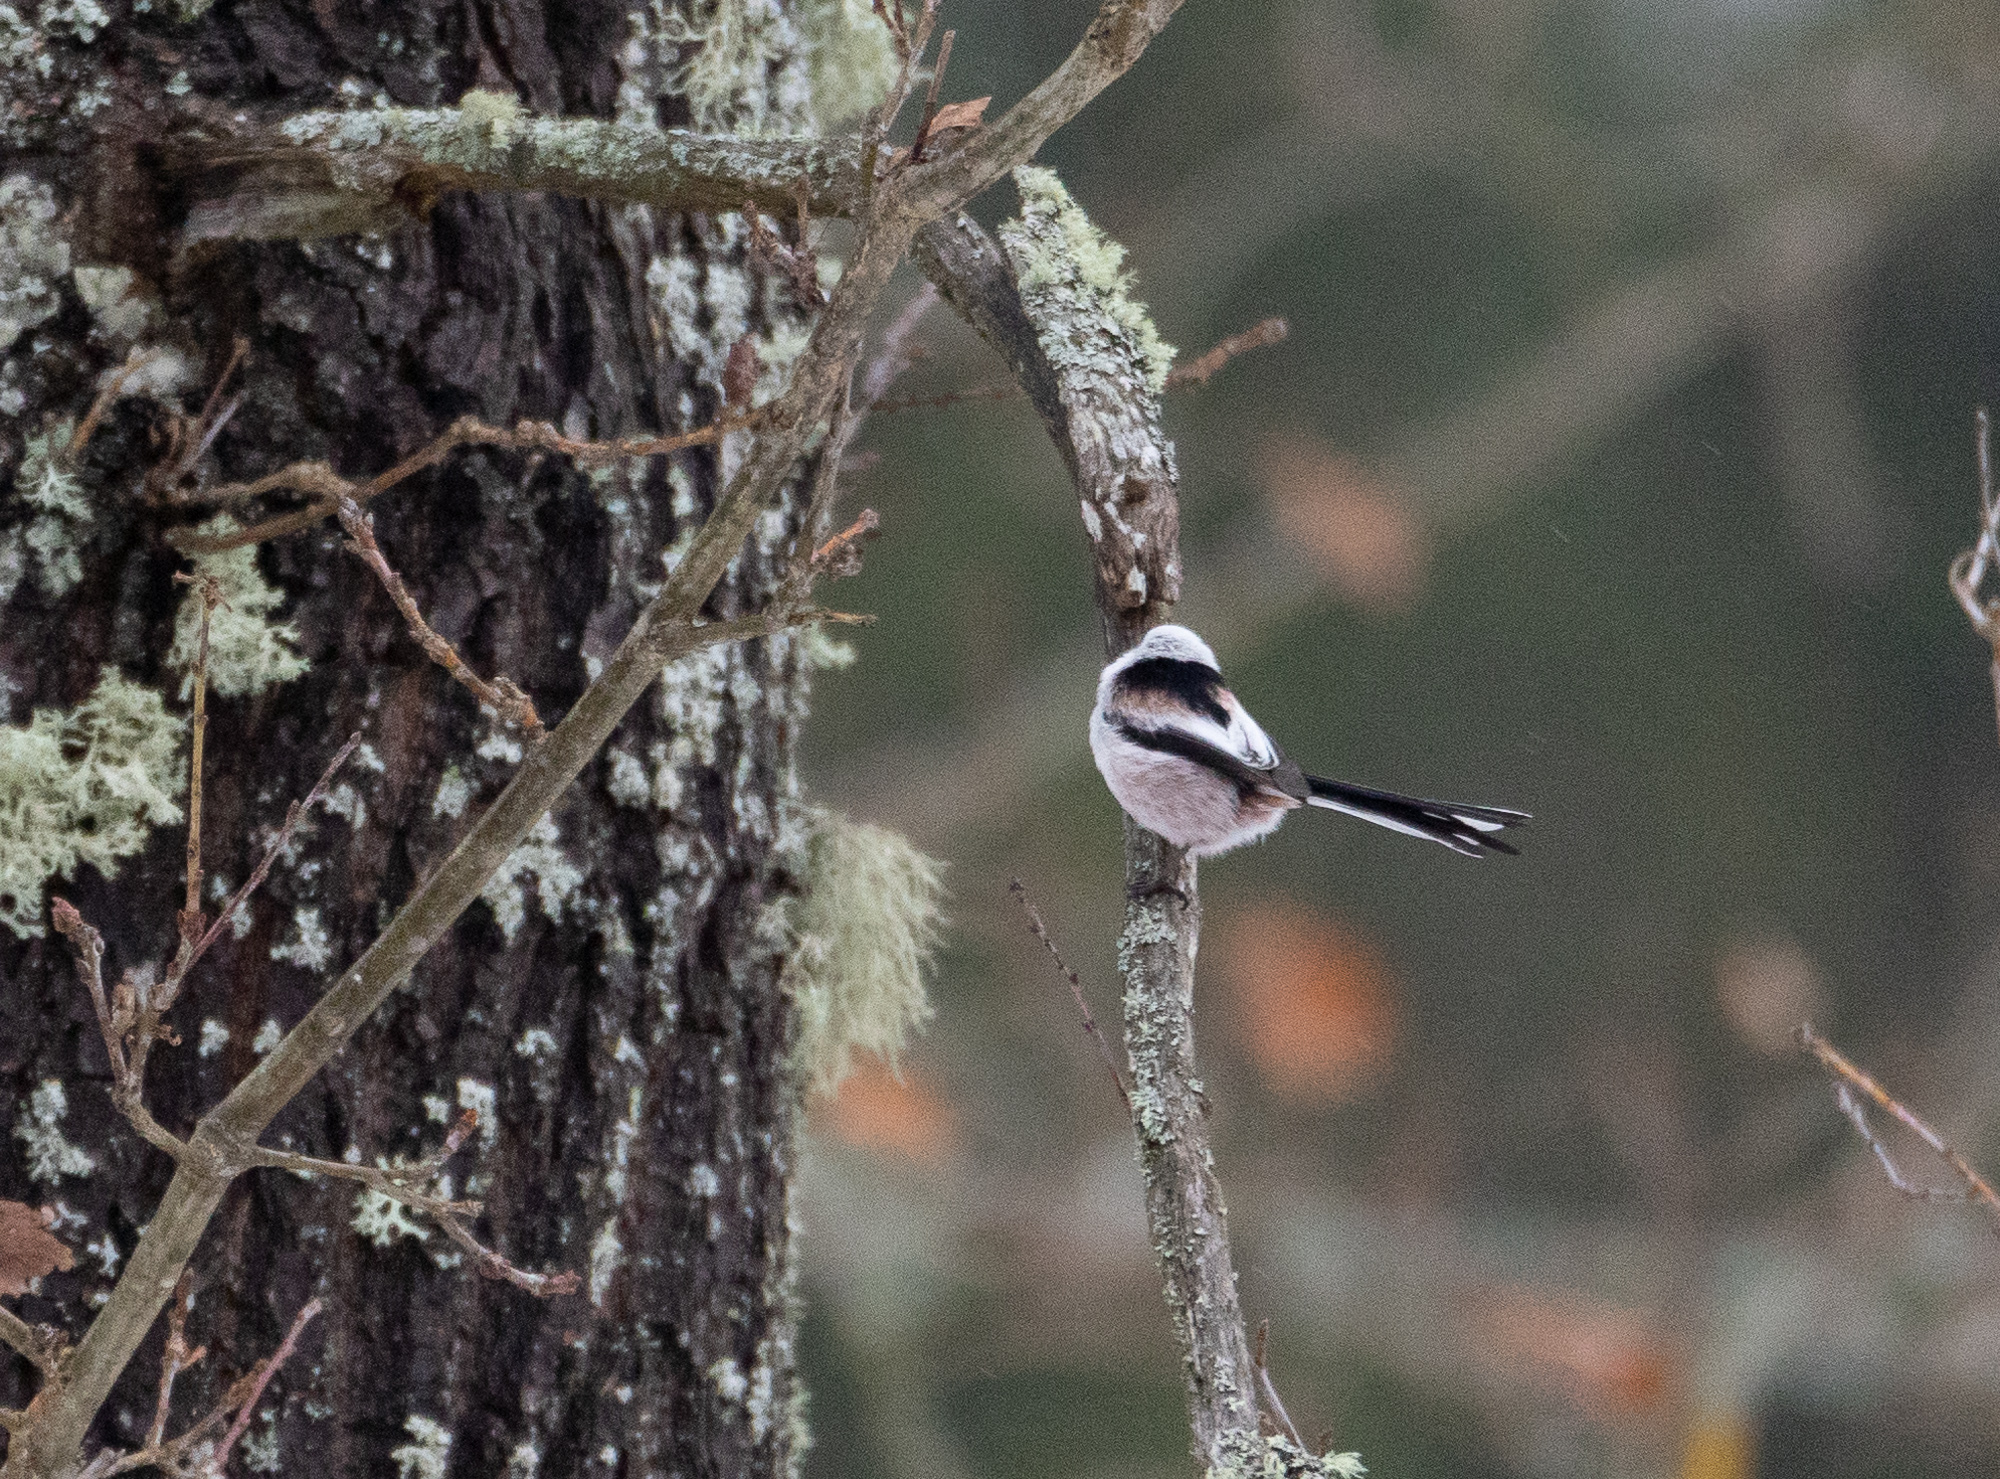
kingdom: Animalia
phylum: Chordata
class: Aves
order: Passeriformes
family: Aegithalidae
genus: Aegithalos
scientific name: Aegithalos caudatus
